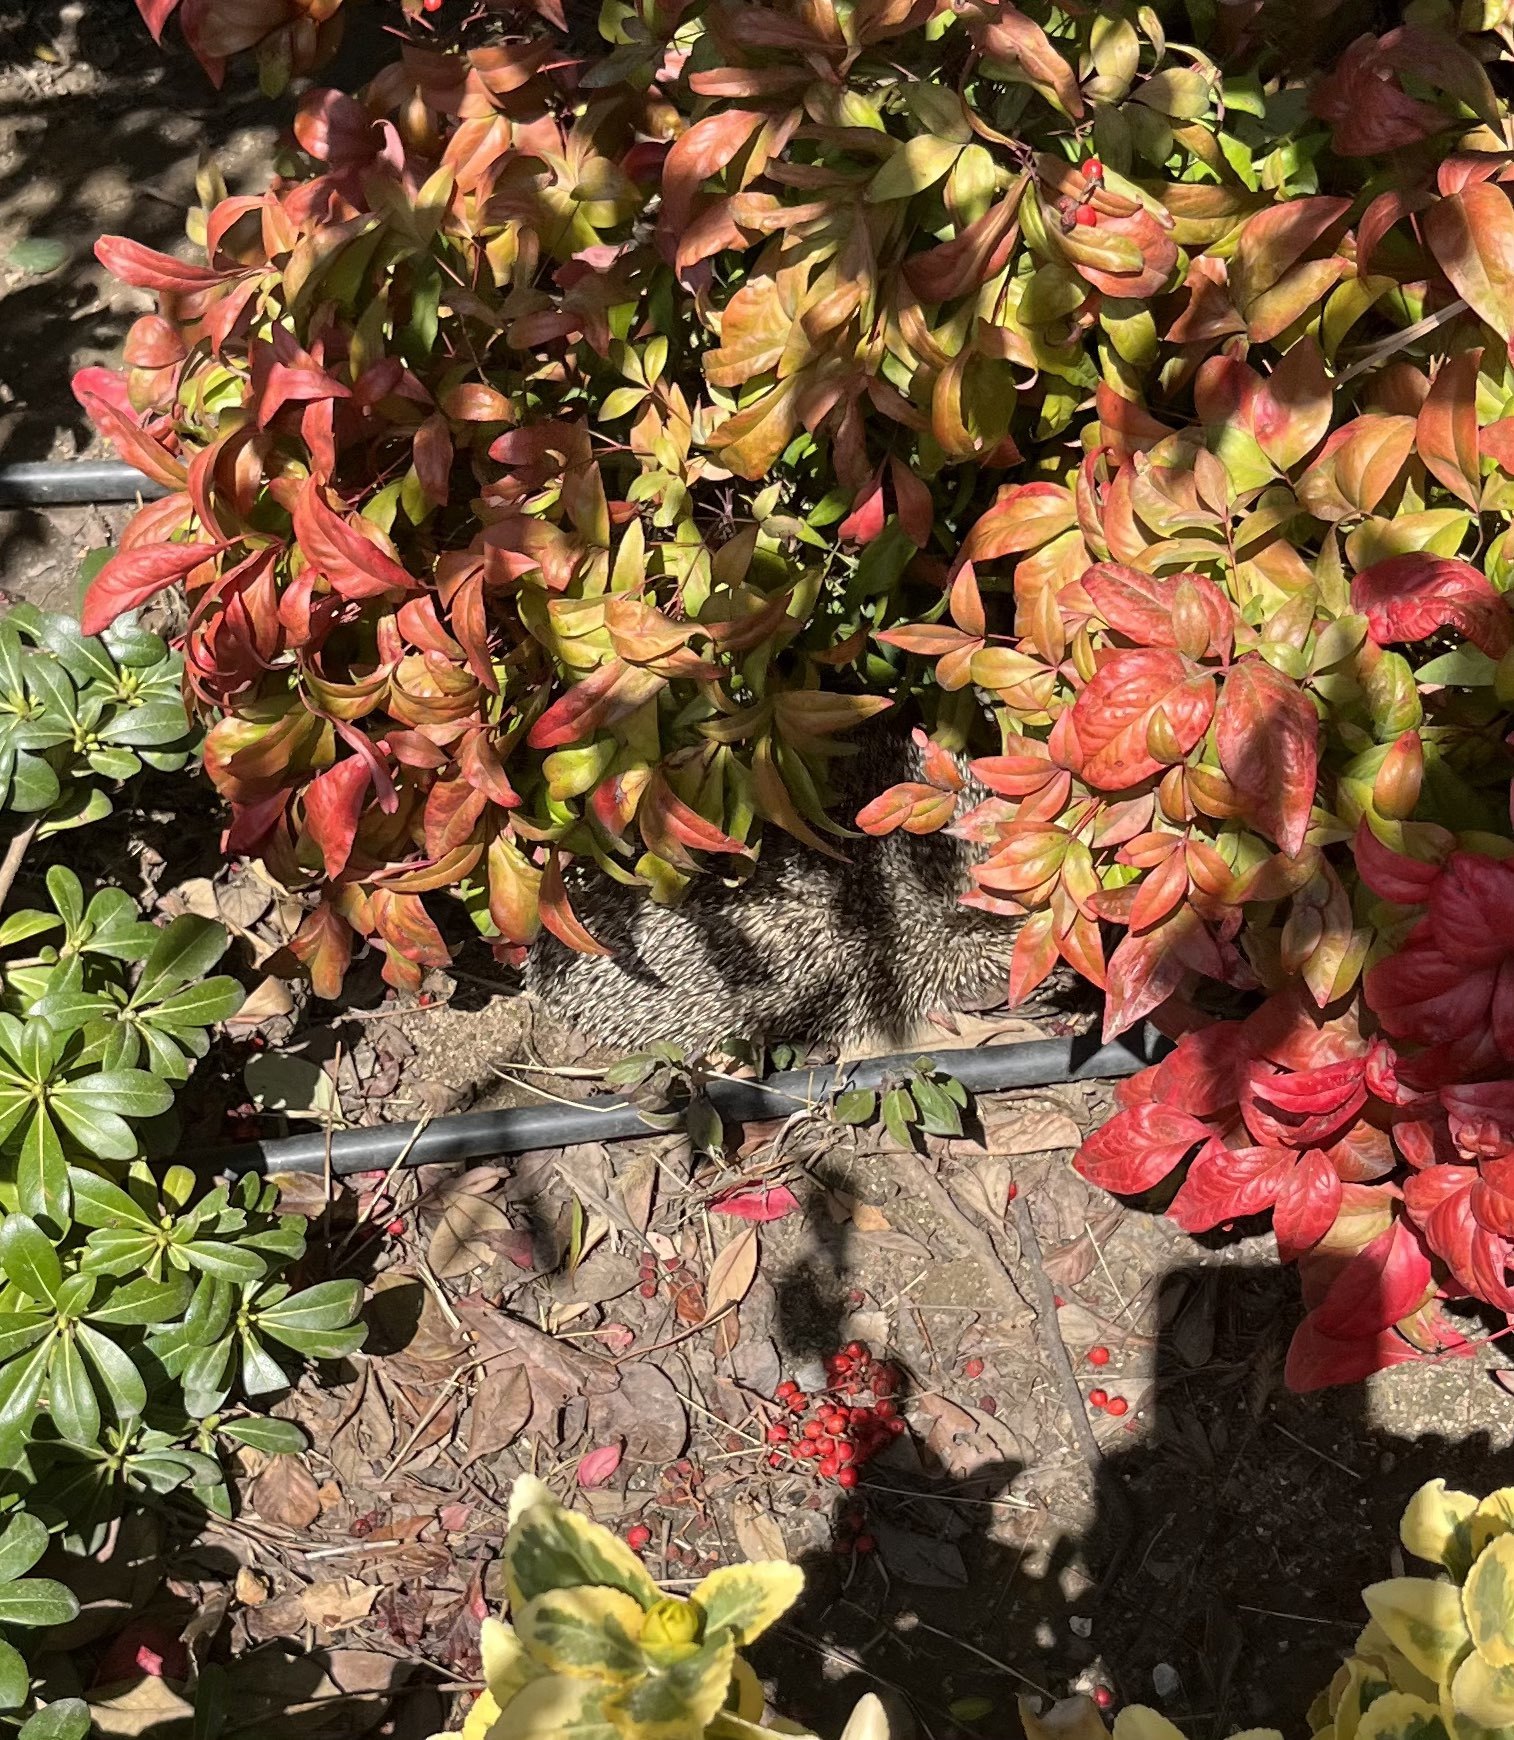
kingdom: Animalia
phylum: Chordata
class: Mammalia
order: Erinaceomorpha
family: Erinaceidae
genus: Erinaceus
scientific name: Erinaceus concolor
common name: Southern white-breasted hedgehog
